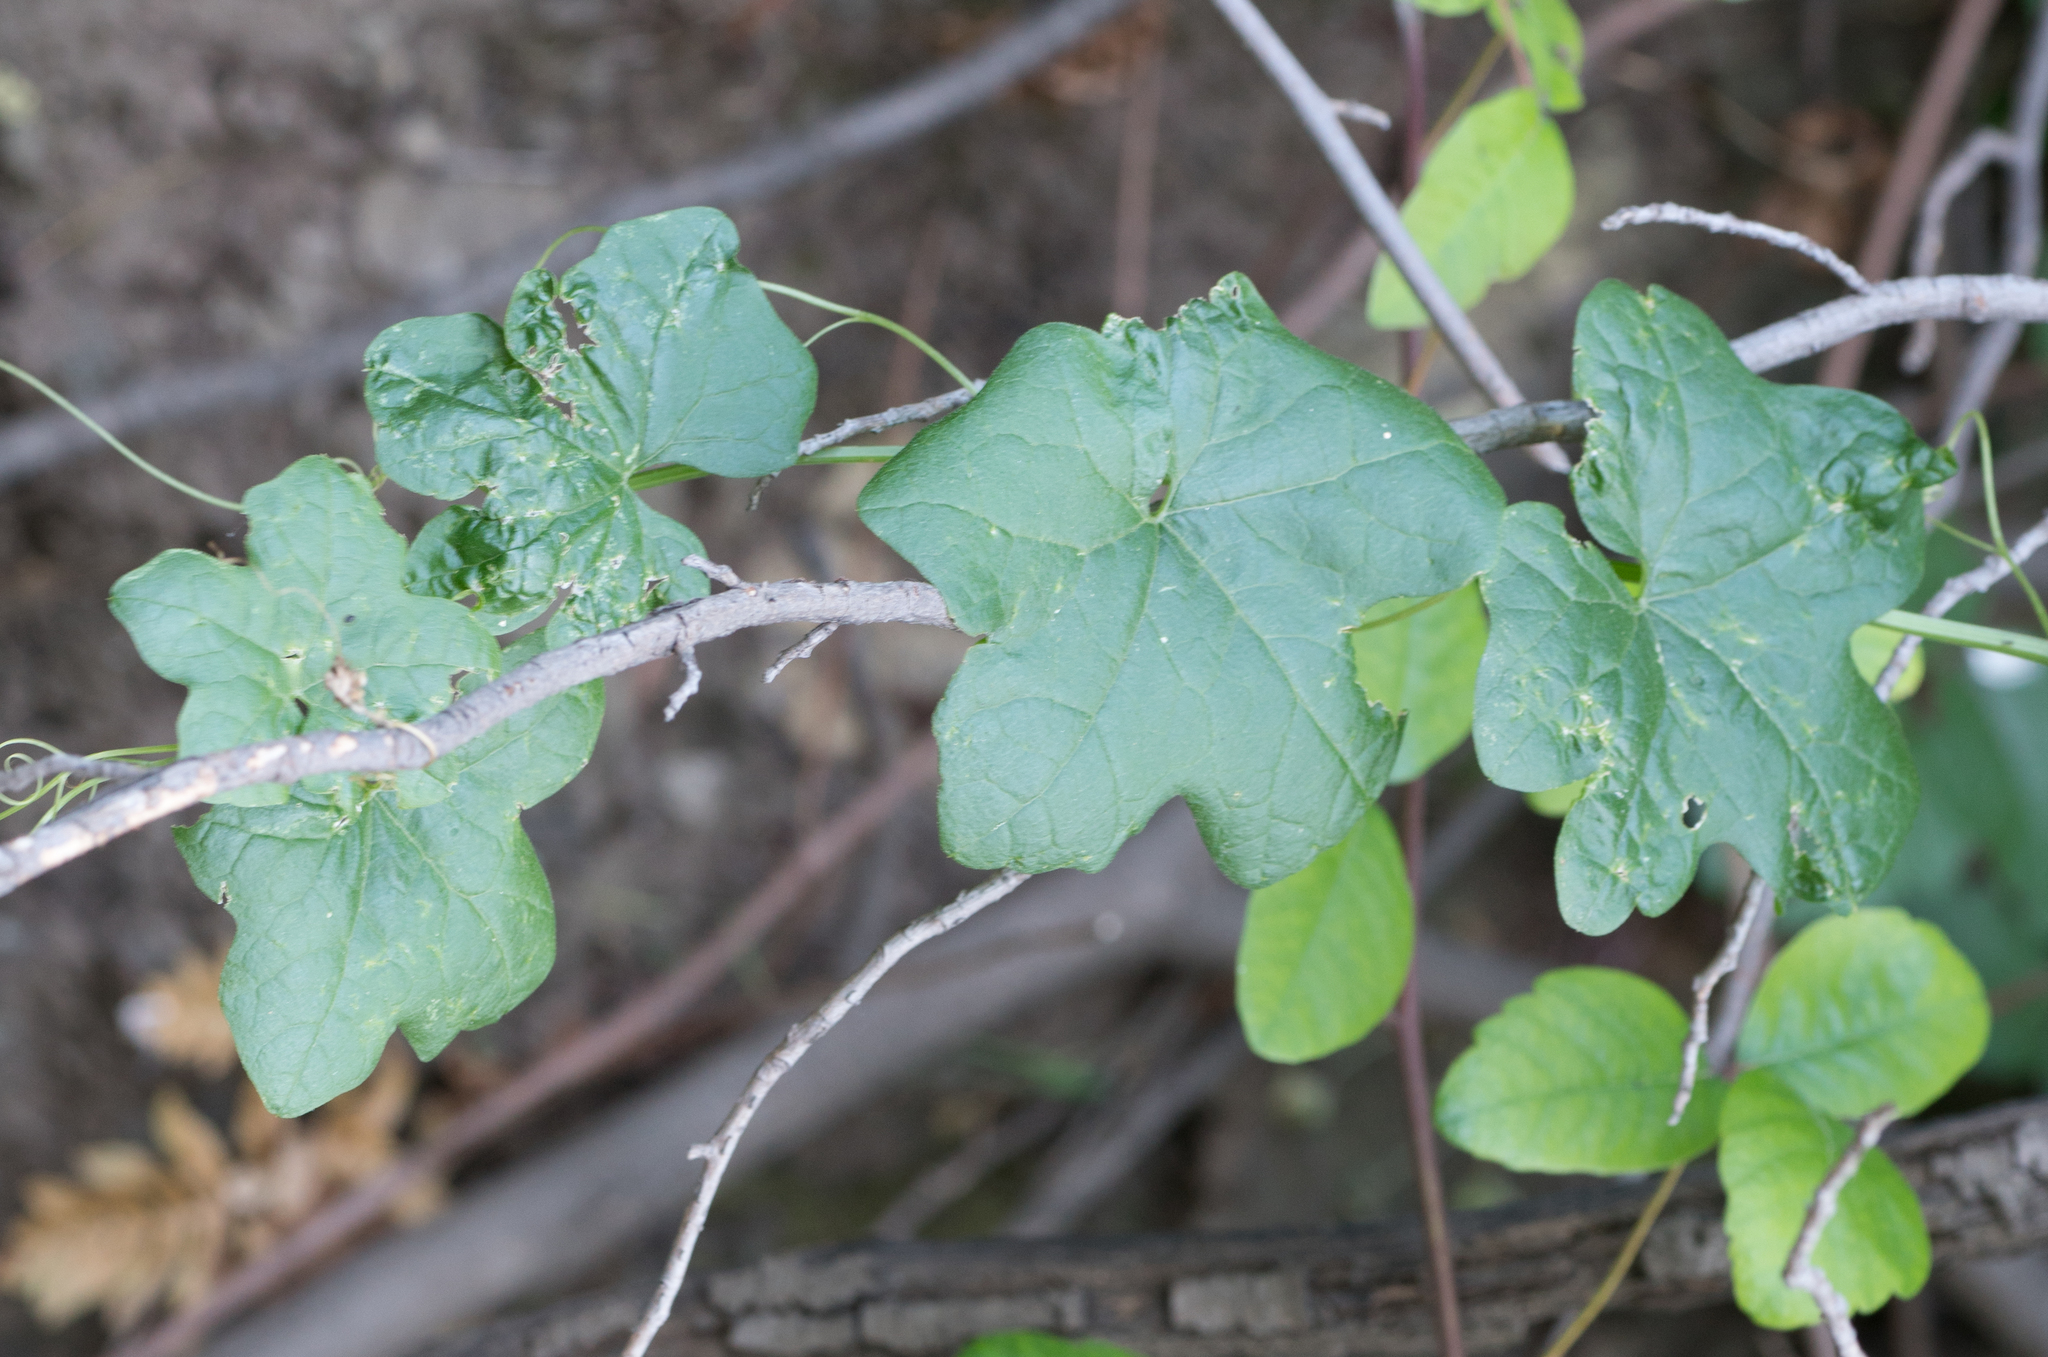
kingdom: Plantae
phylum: Tracheophyta
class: Magnoliopsida
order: Cucurbitales
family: Cucurbitaceae
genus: Marah
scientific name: Marah macrocarpa
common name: Cucamonga manroot
